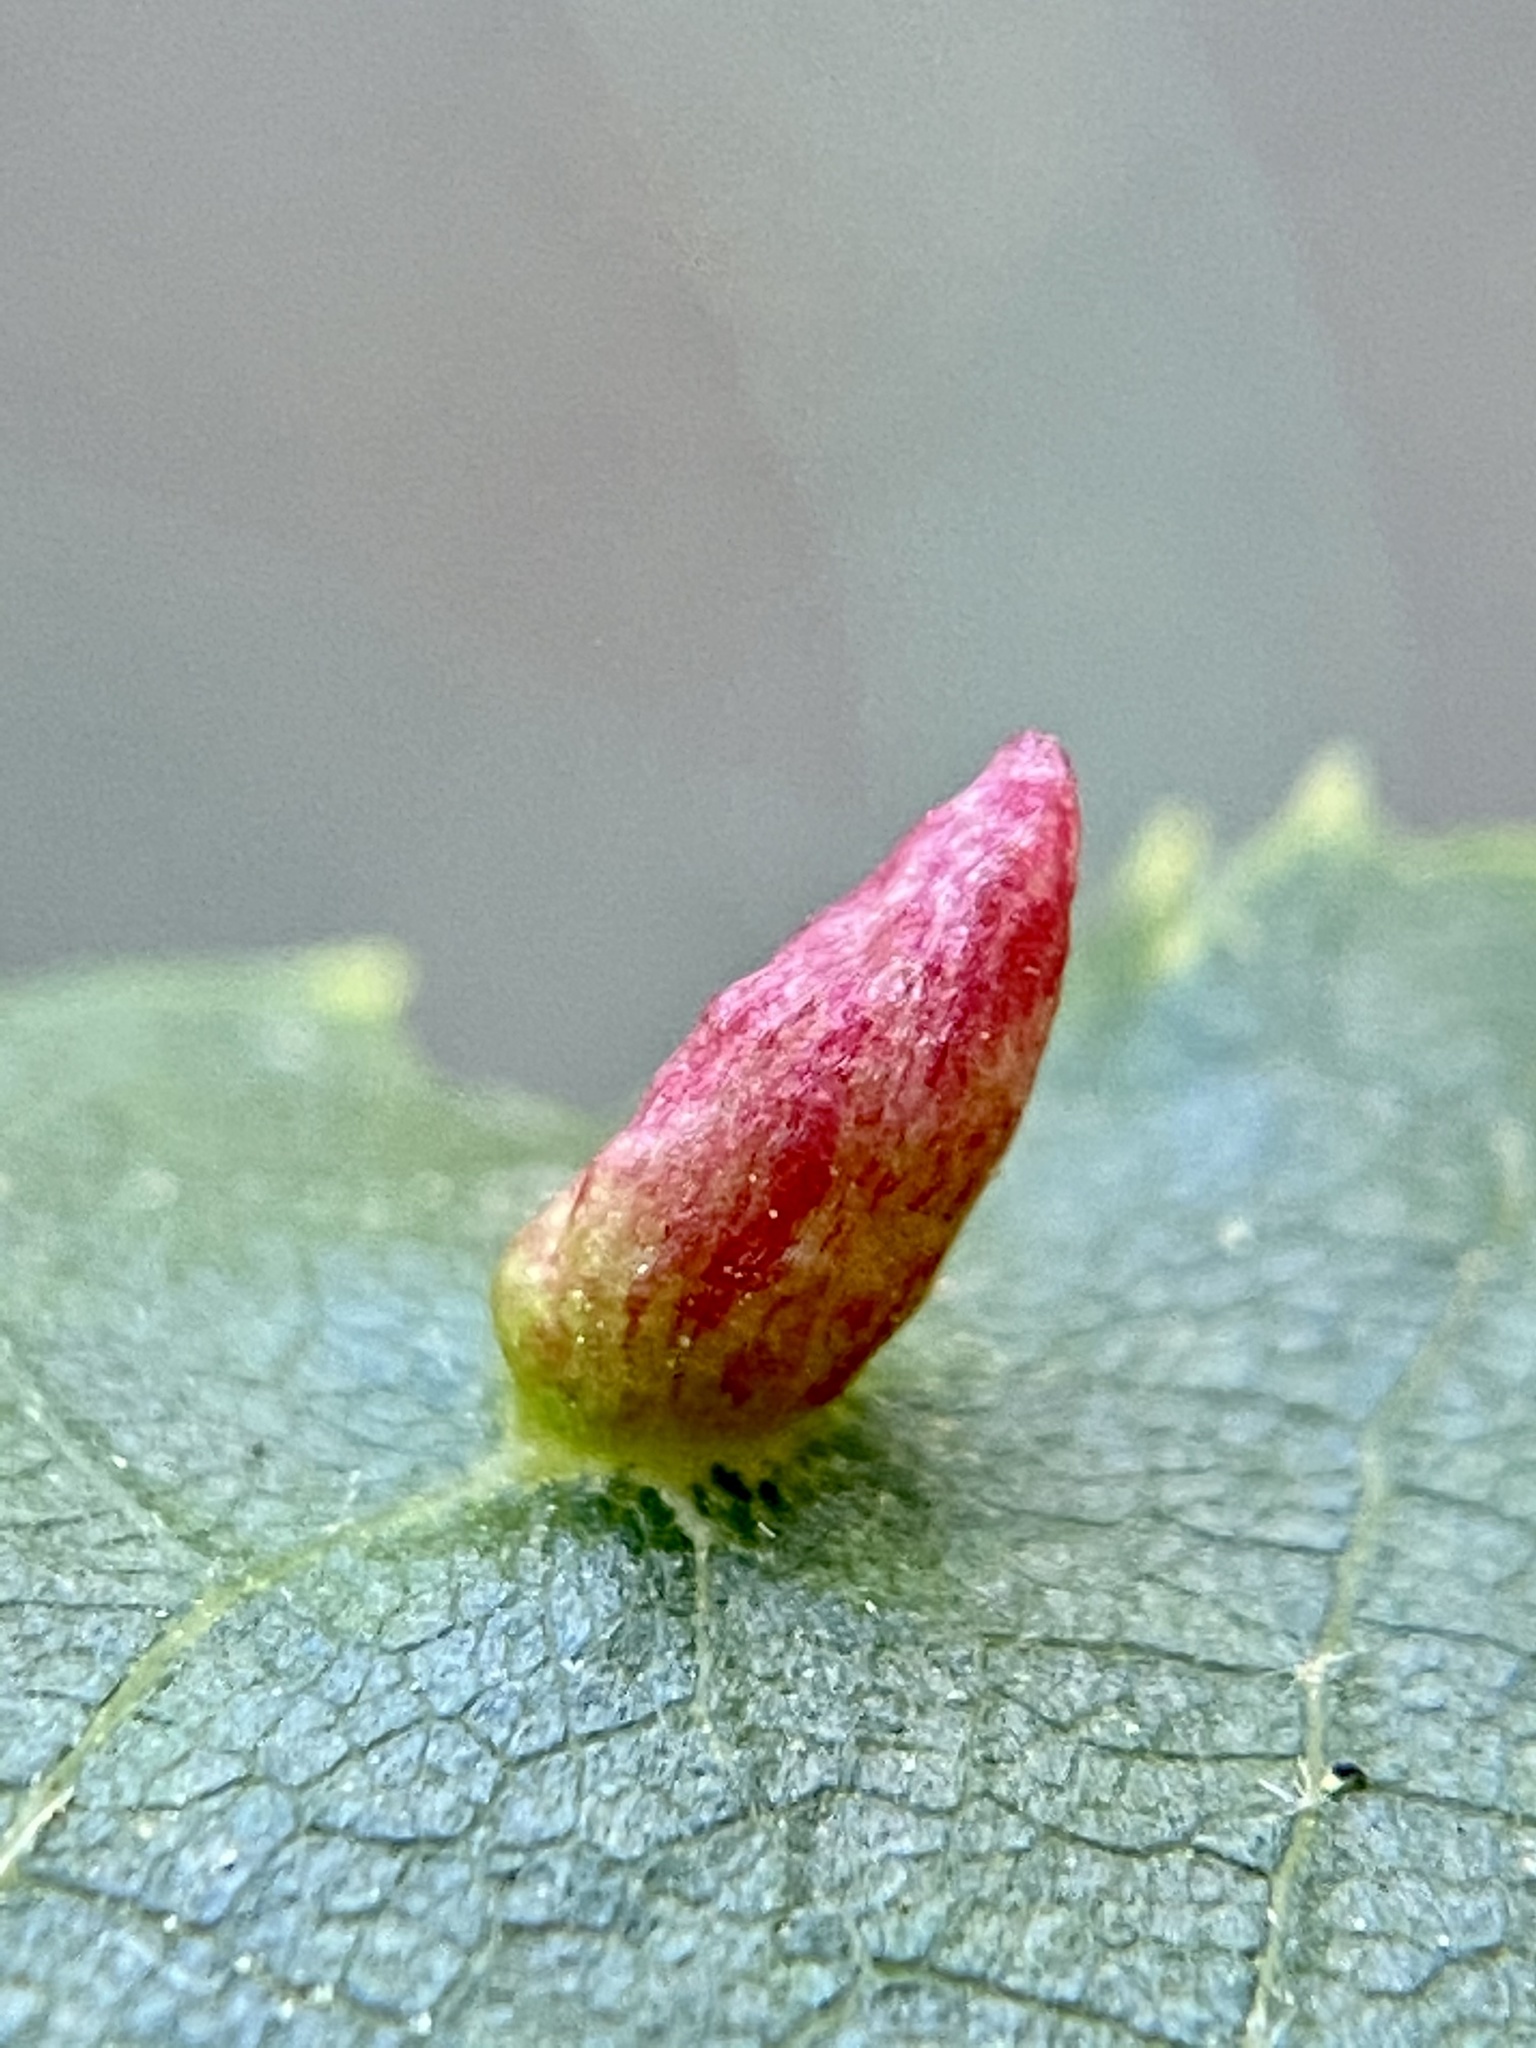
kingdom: Animalia
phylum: Arthropoda
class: Arachnida
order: Trombidiformes
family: Eriophyidae
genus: Eriophyes
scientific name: Eriophyes tiliae
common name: Red nail gall mite
